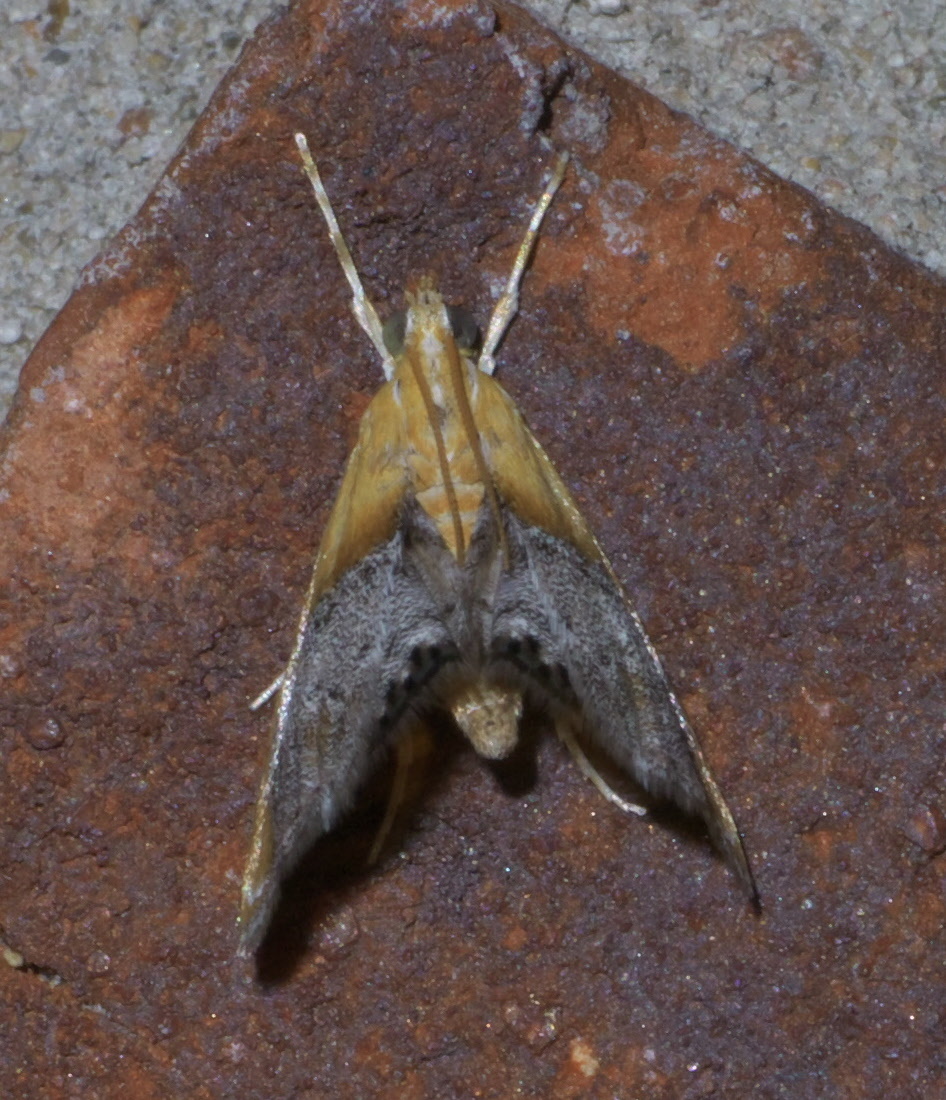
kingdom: Animalia
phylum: Arthropoda
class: Insecta
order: Lepidoptera
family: Crambidae
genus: Chalcoela
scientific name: Chalcoela iphitalis
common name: Sooty-winged chalcoela moth
